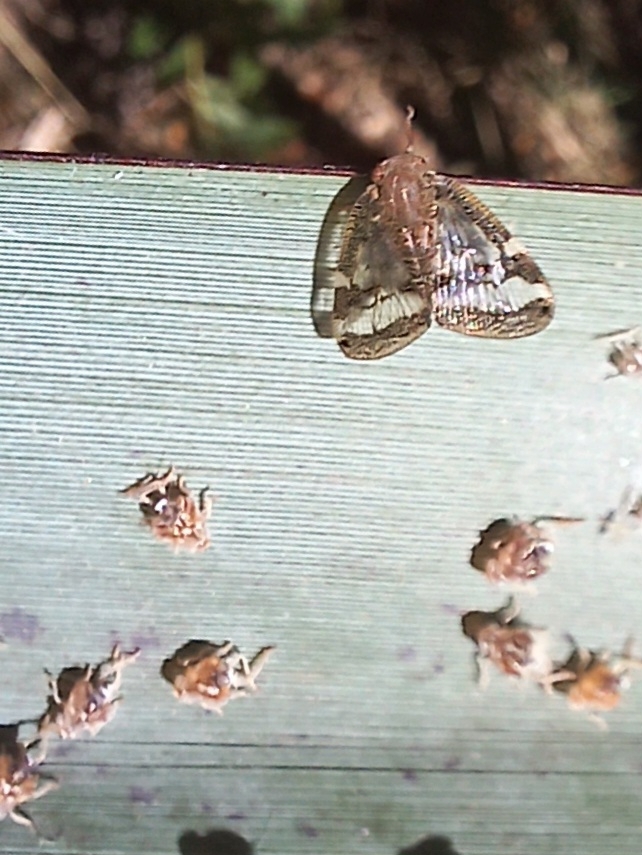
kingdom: Animalia
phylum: Arthropoda
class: Insecta
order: Hemiptera
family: Ricaniidae
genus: Scolypopa
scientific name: Scolypopa australis
